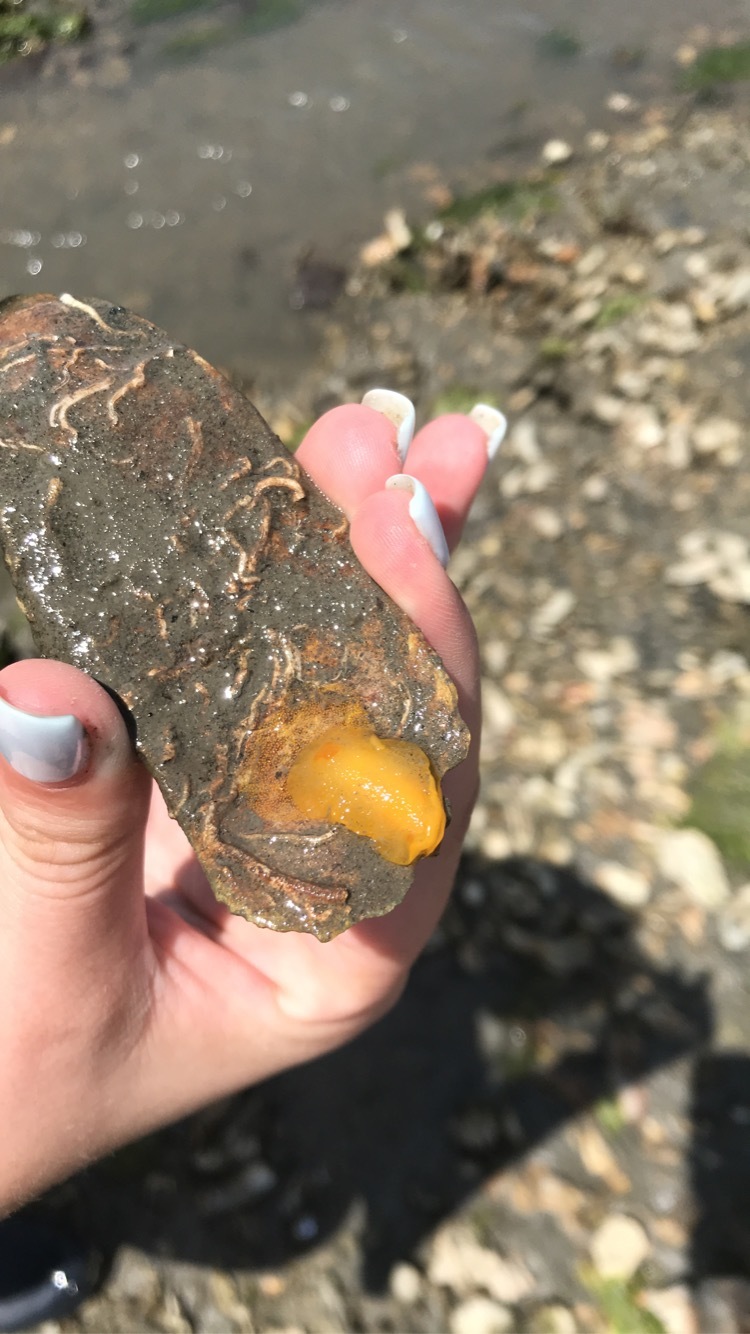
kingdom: Animalia
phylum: Mollusca
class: Gastropoda
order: Nudibranchia
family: Dendrodorididae
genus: Cariopsilla
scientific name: Cariopsilla pharpa
